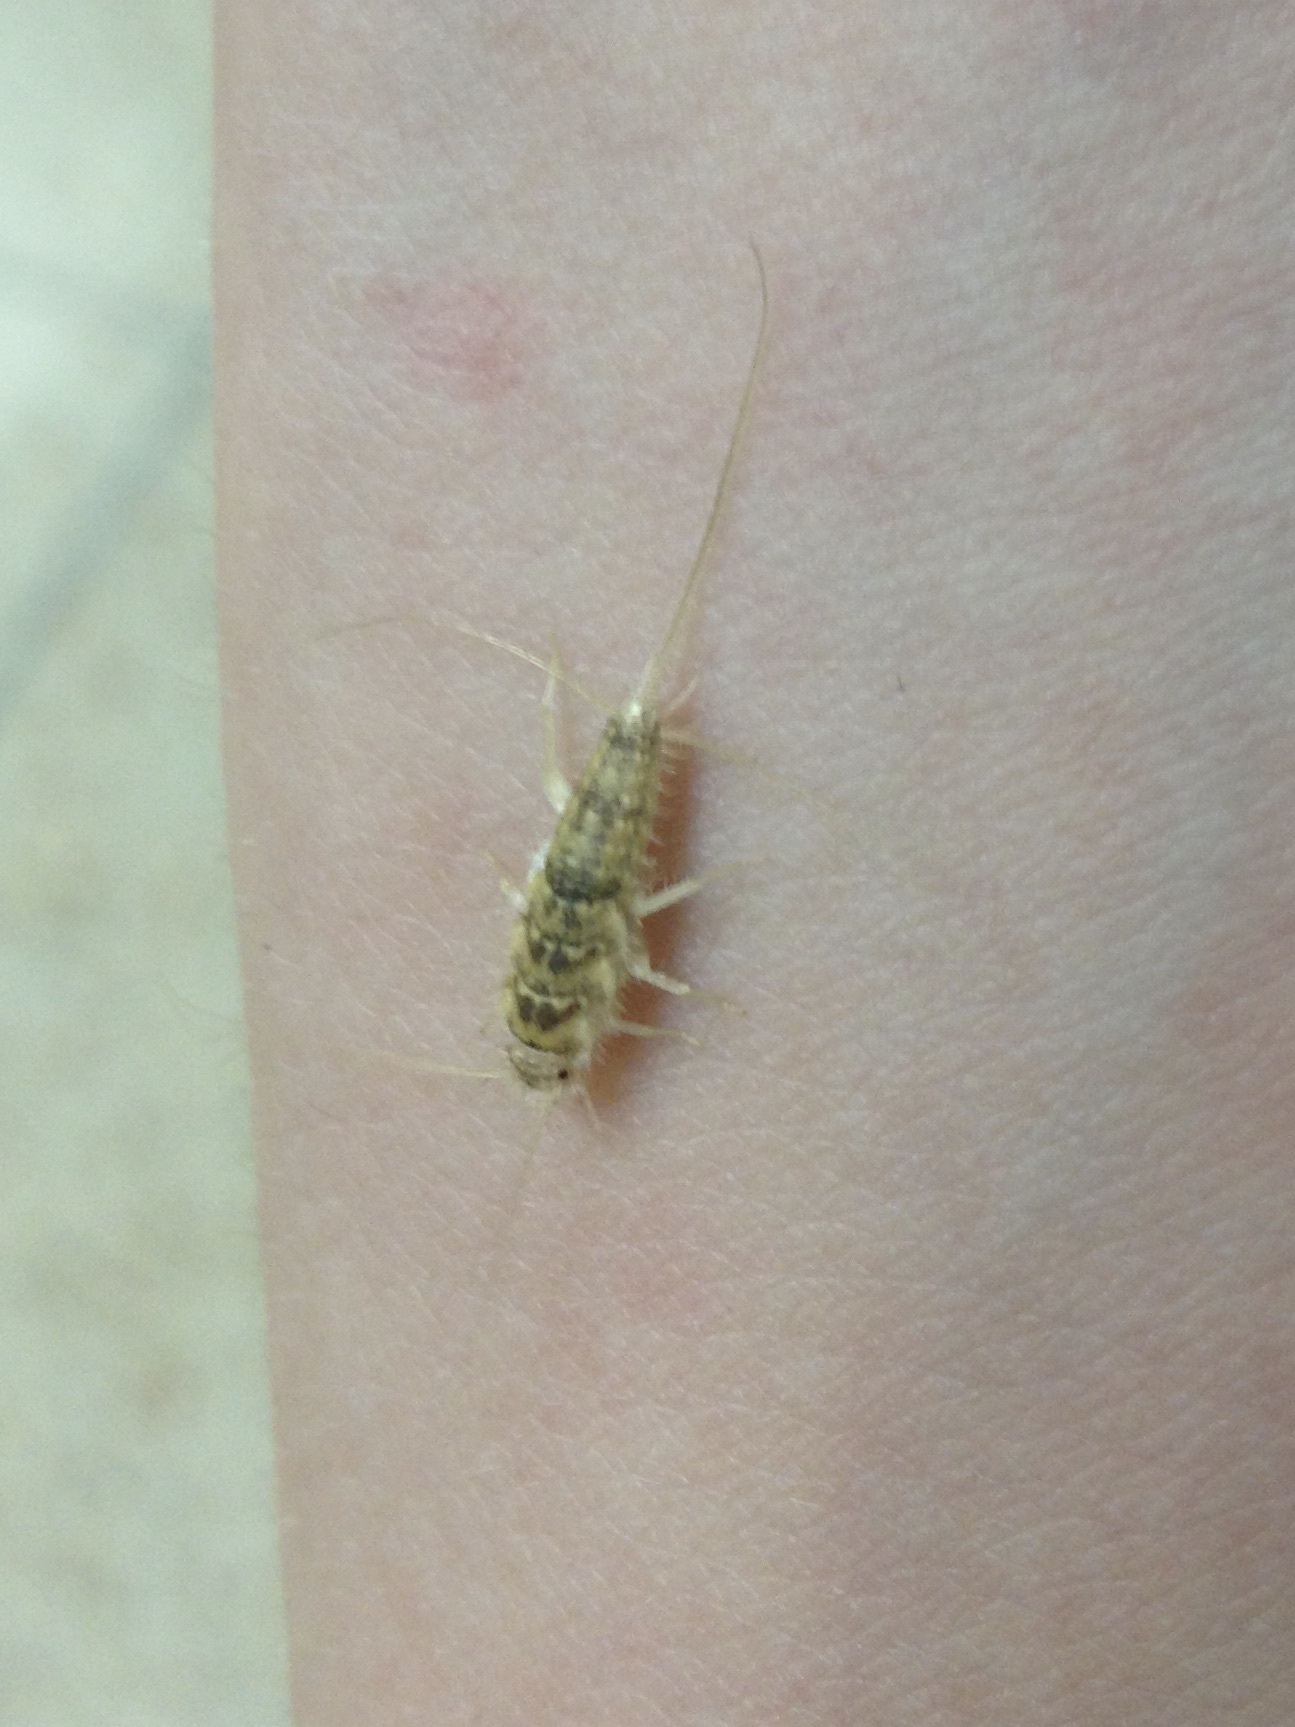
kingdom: Animalia
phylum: Arthropoda
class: Insecta
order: Zygentoma
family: Lepismatidae
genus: Thermobia
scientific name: Thermobia domestica
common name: Firebrat
